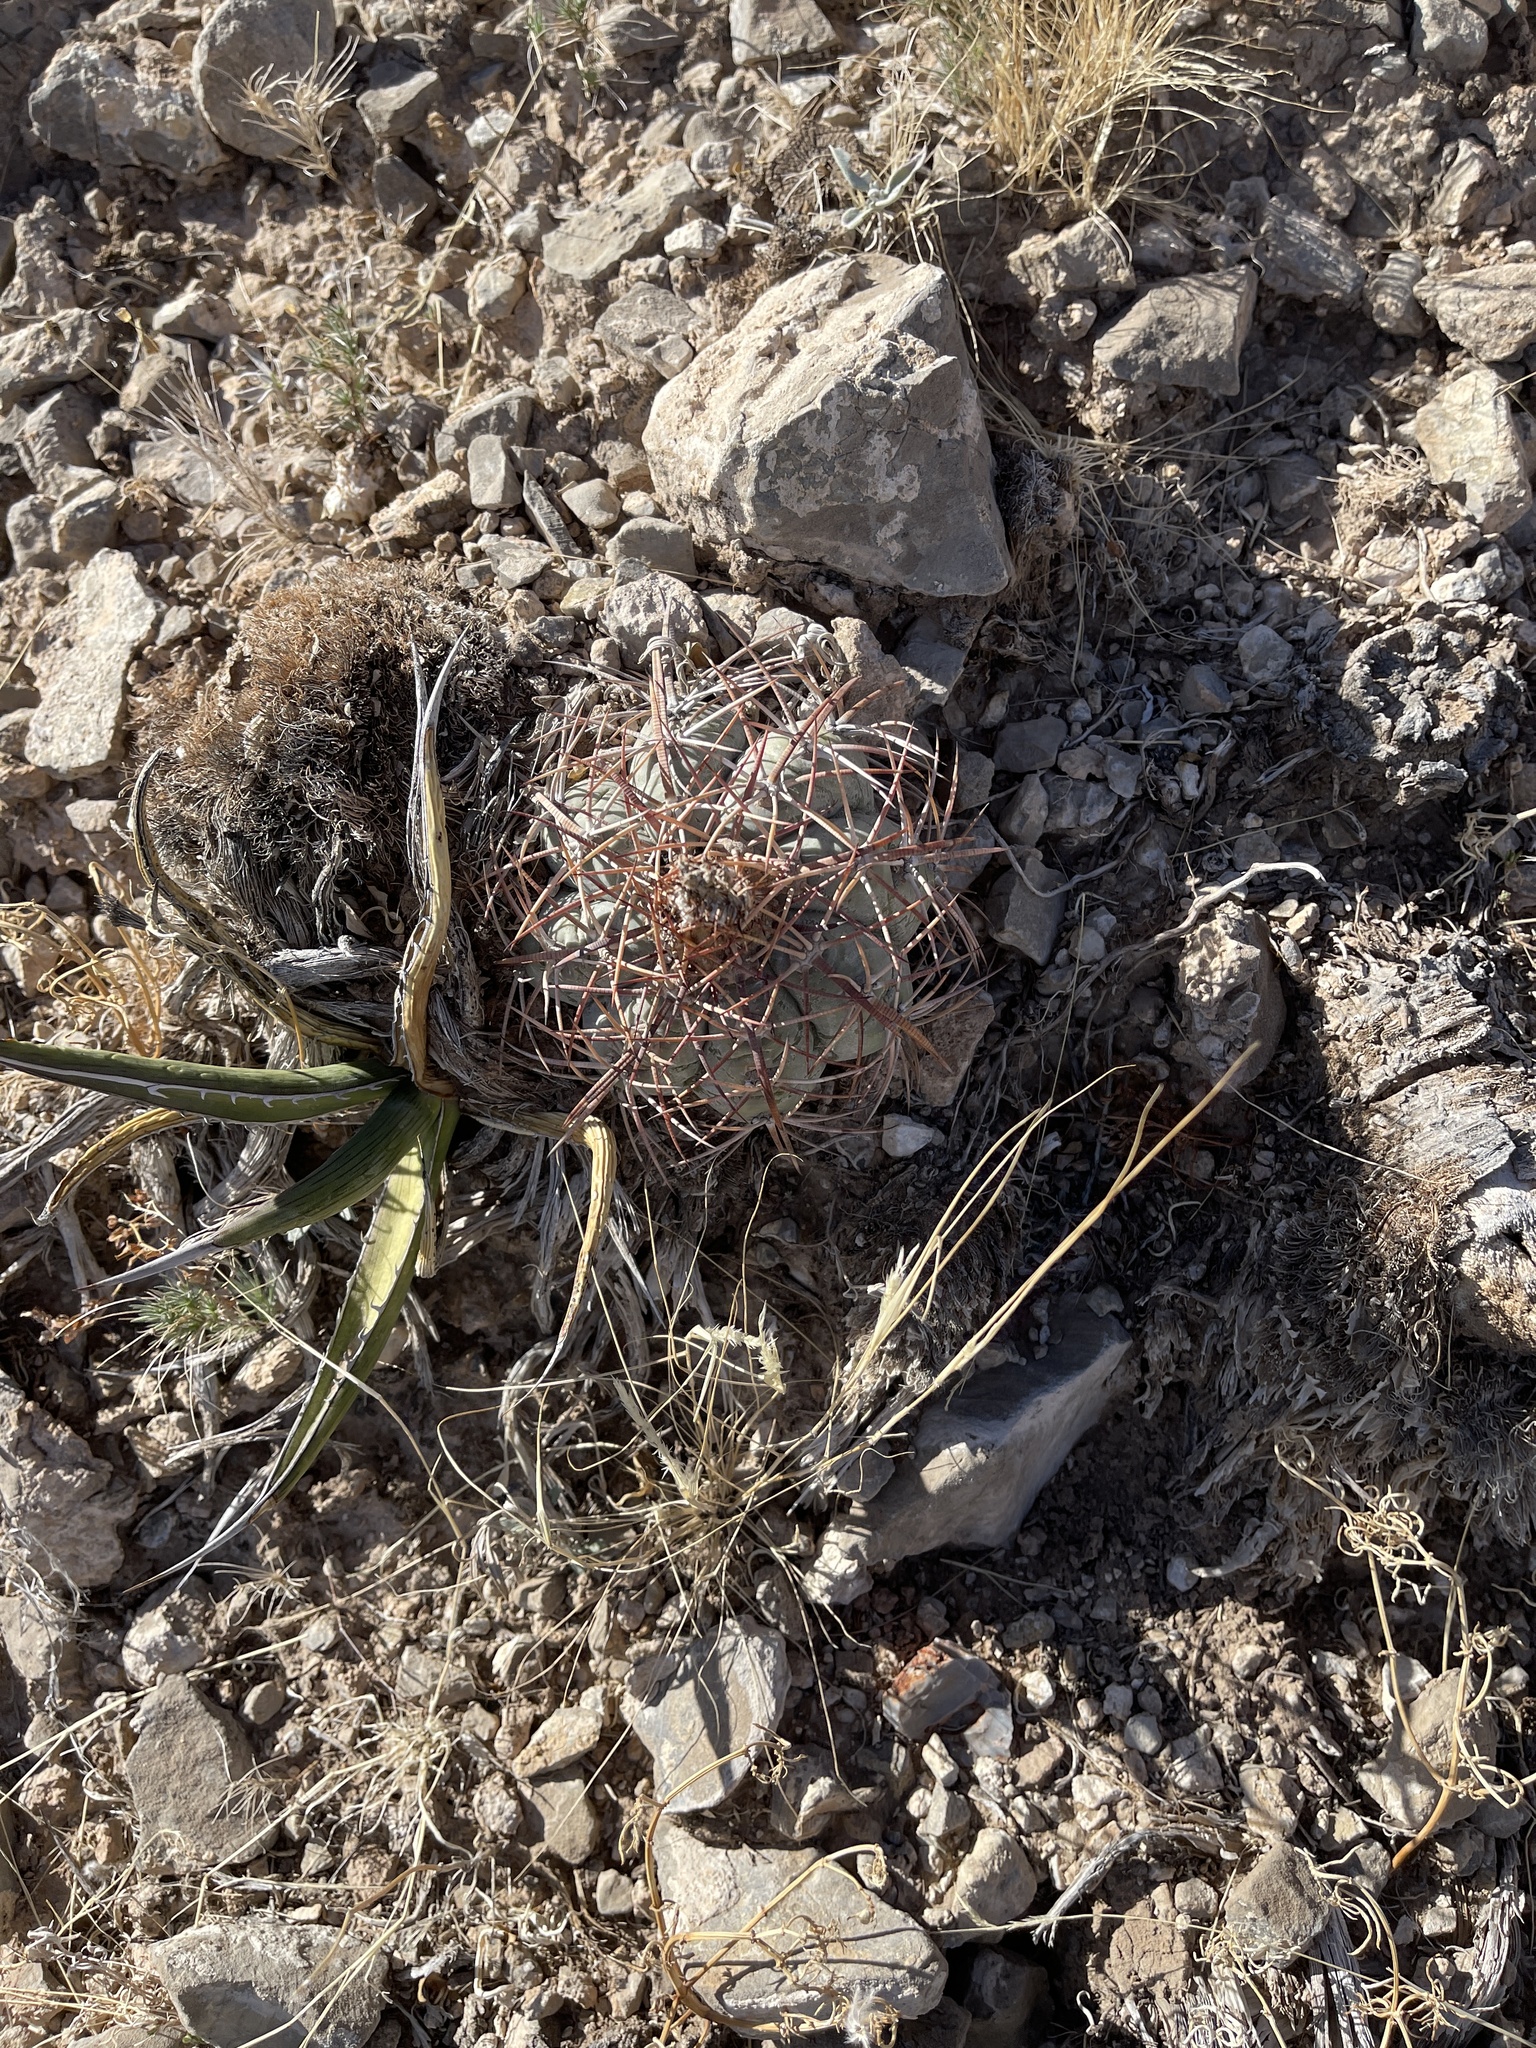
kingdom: Plantae
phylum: Tracheophyta
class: Magnoliopsida
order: Caryophyllales
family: Cactaceae
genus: Echinocactus
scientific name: Echinocactus horizonthalonius
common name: Devilshead
